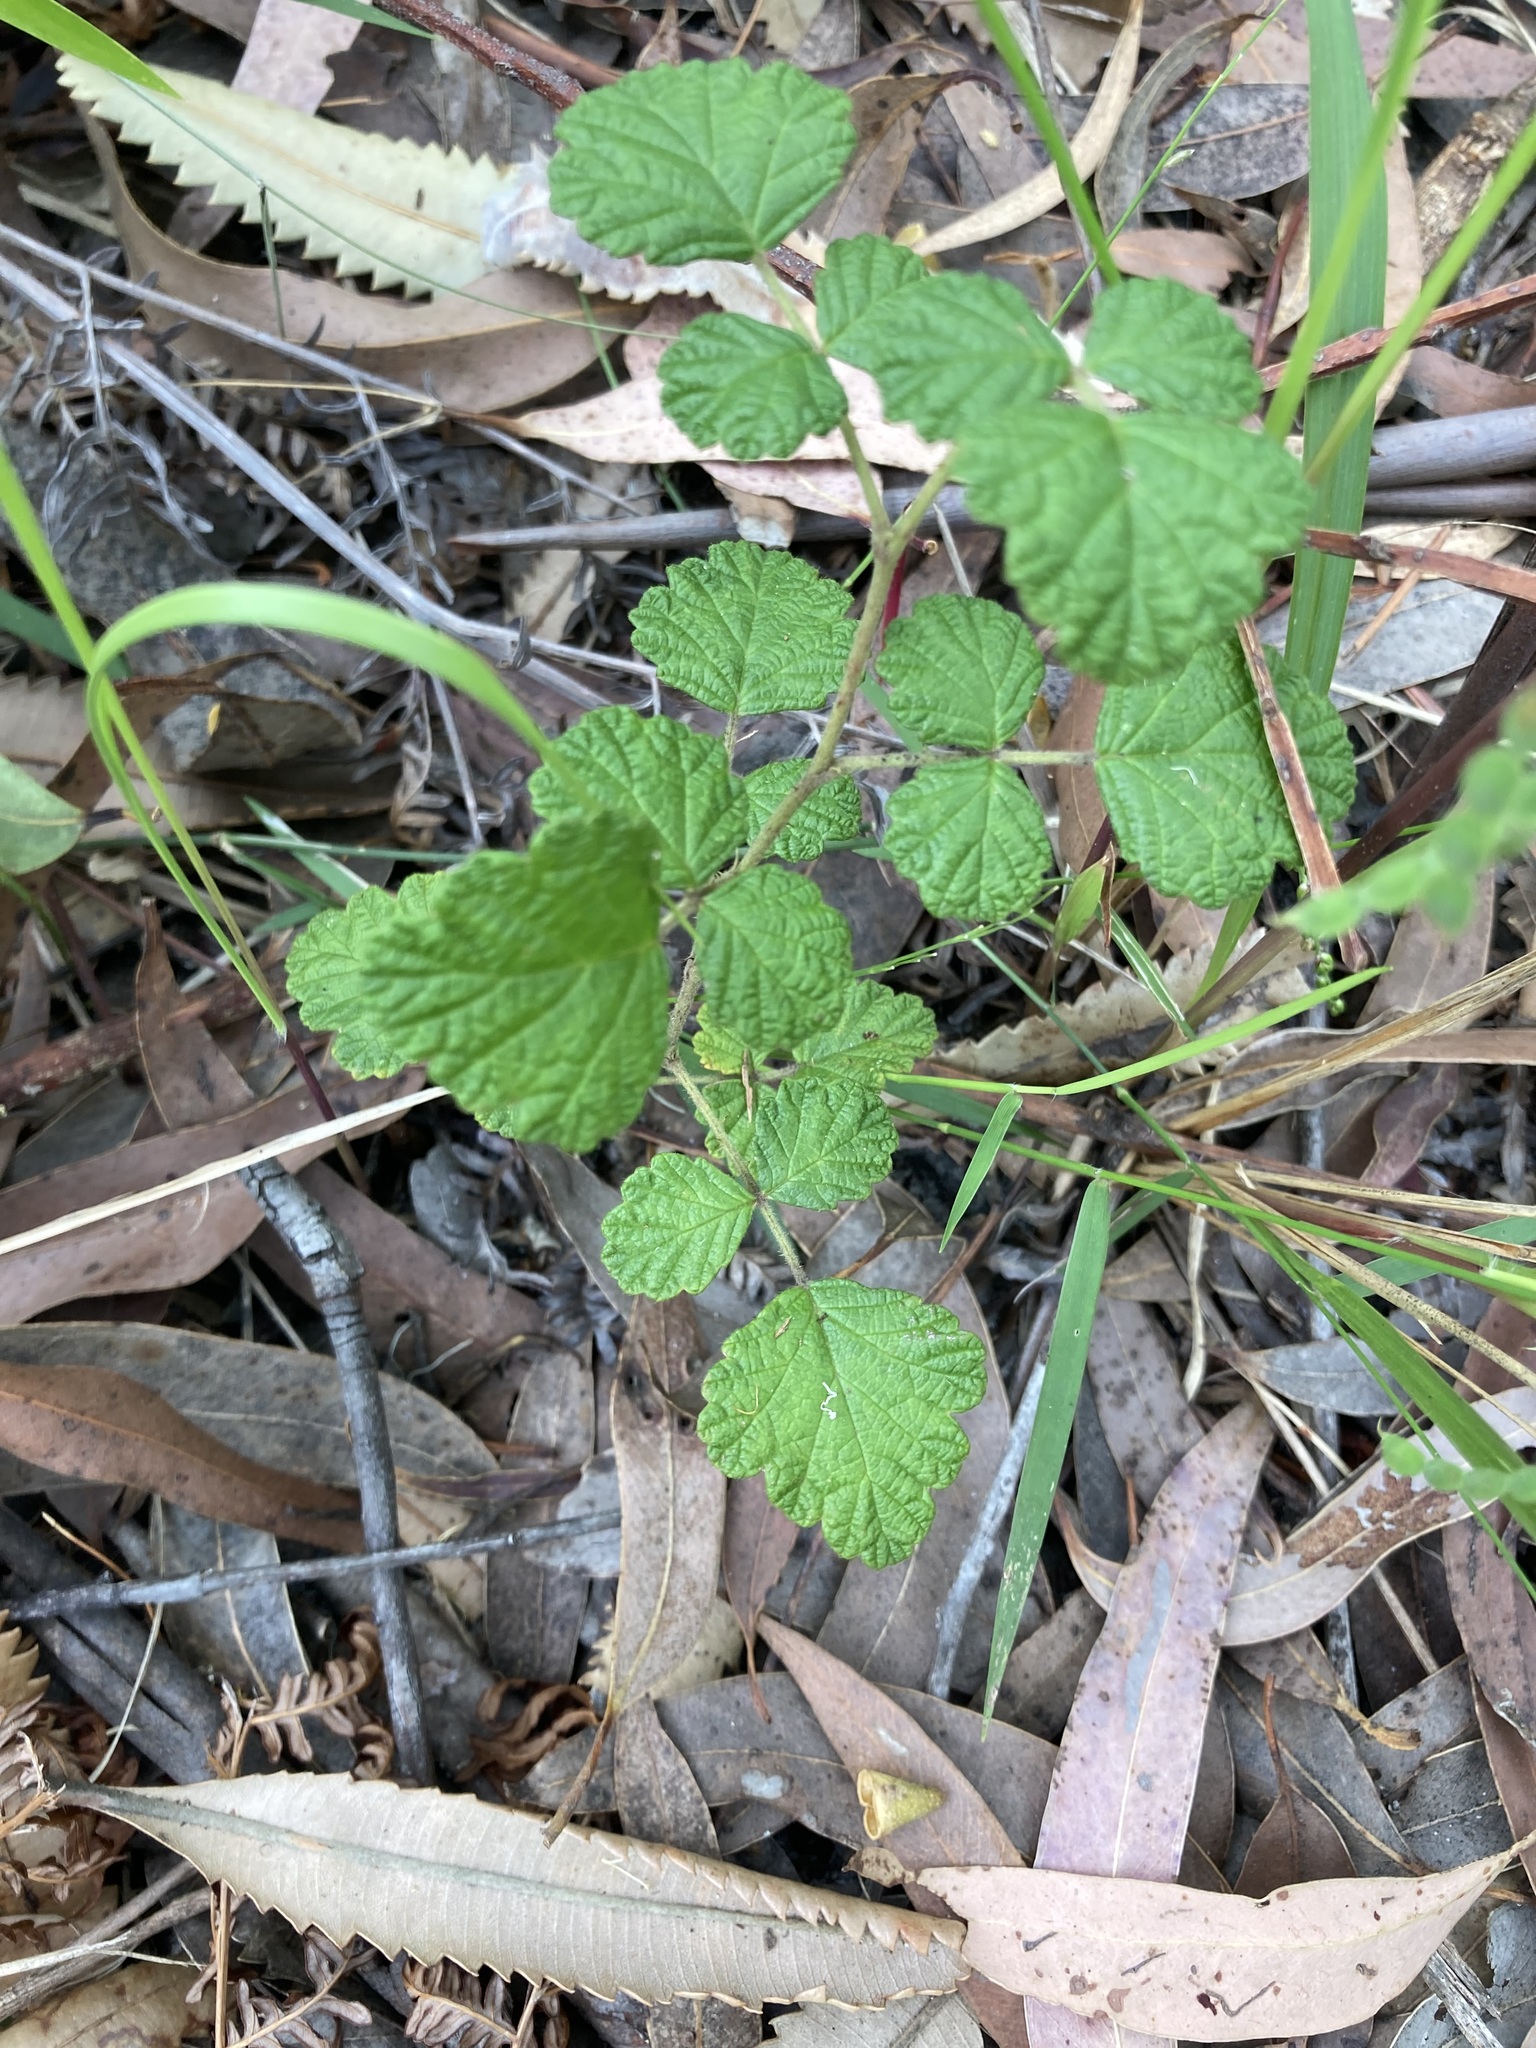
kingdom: Plantae
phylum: Tracheophyta
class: Magnoliopsida
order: Rosales
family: Rosaceae
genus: Rubus
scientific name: Rubus parvifolius
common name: Threeleaf blackberry
